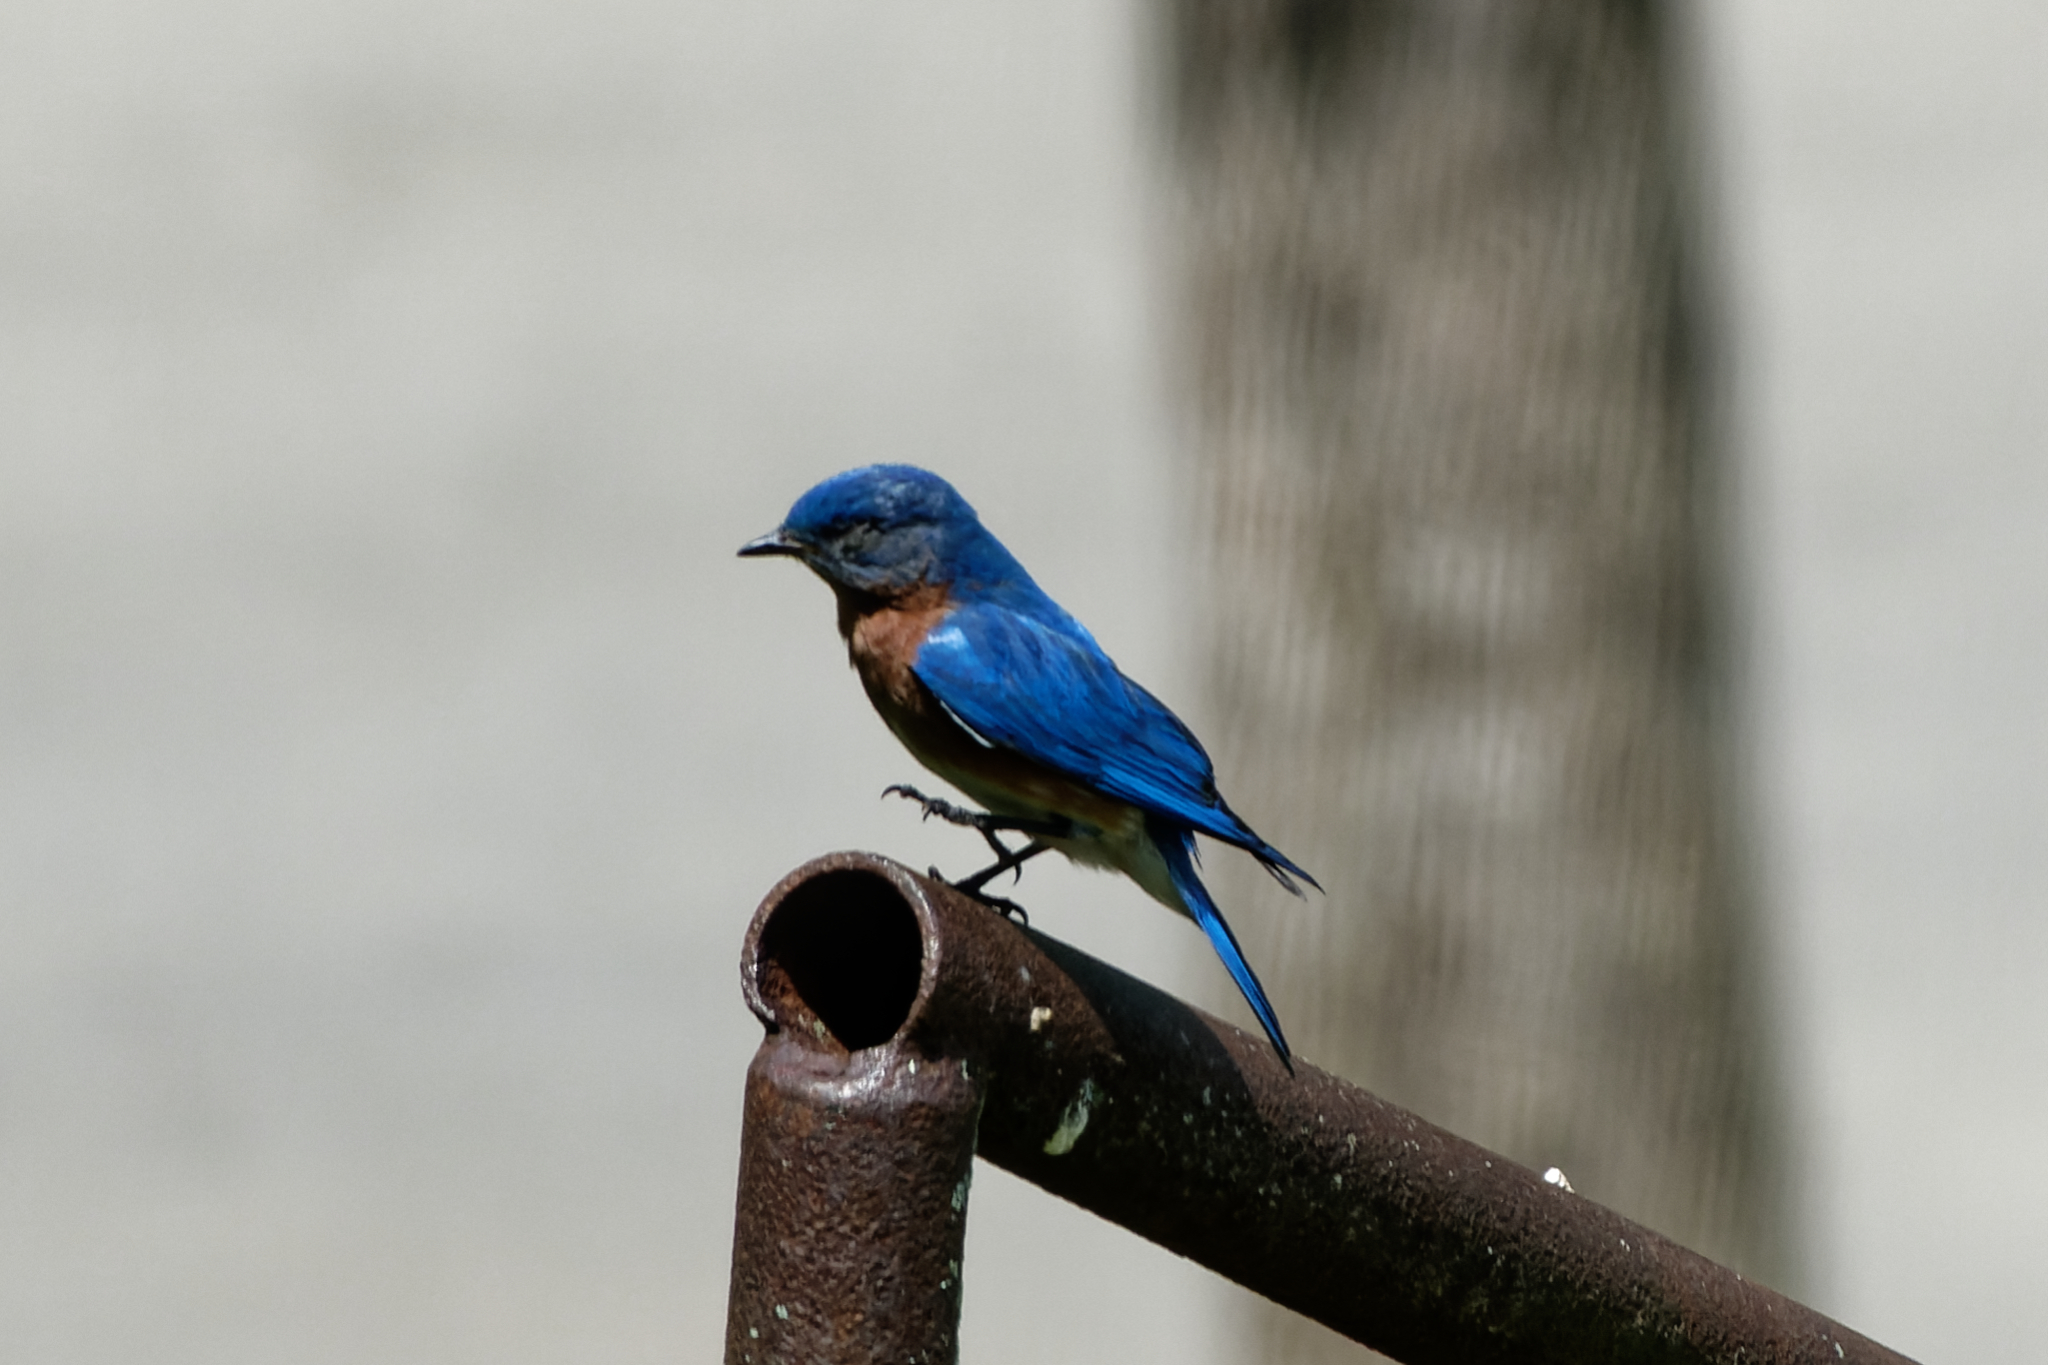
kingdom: Animalia
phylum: Chordata
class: Aves
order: Passeriformes
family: Turdidae
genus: Sialia
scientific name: Sialia sialis
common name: Eastern bluebird
